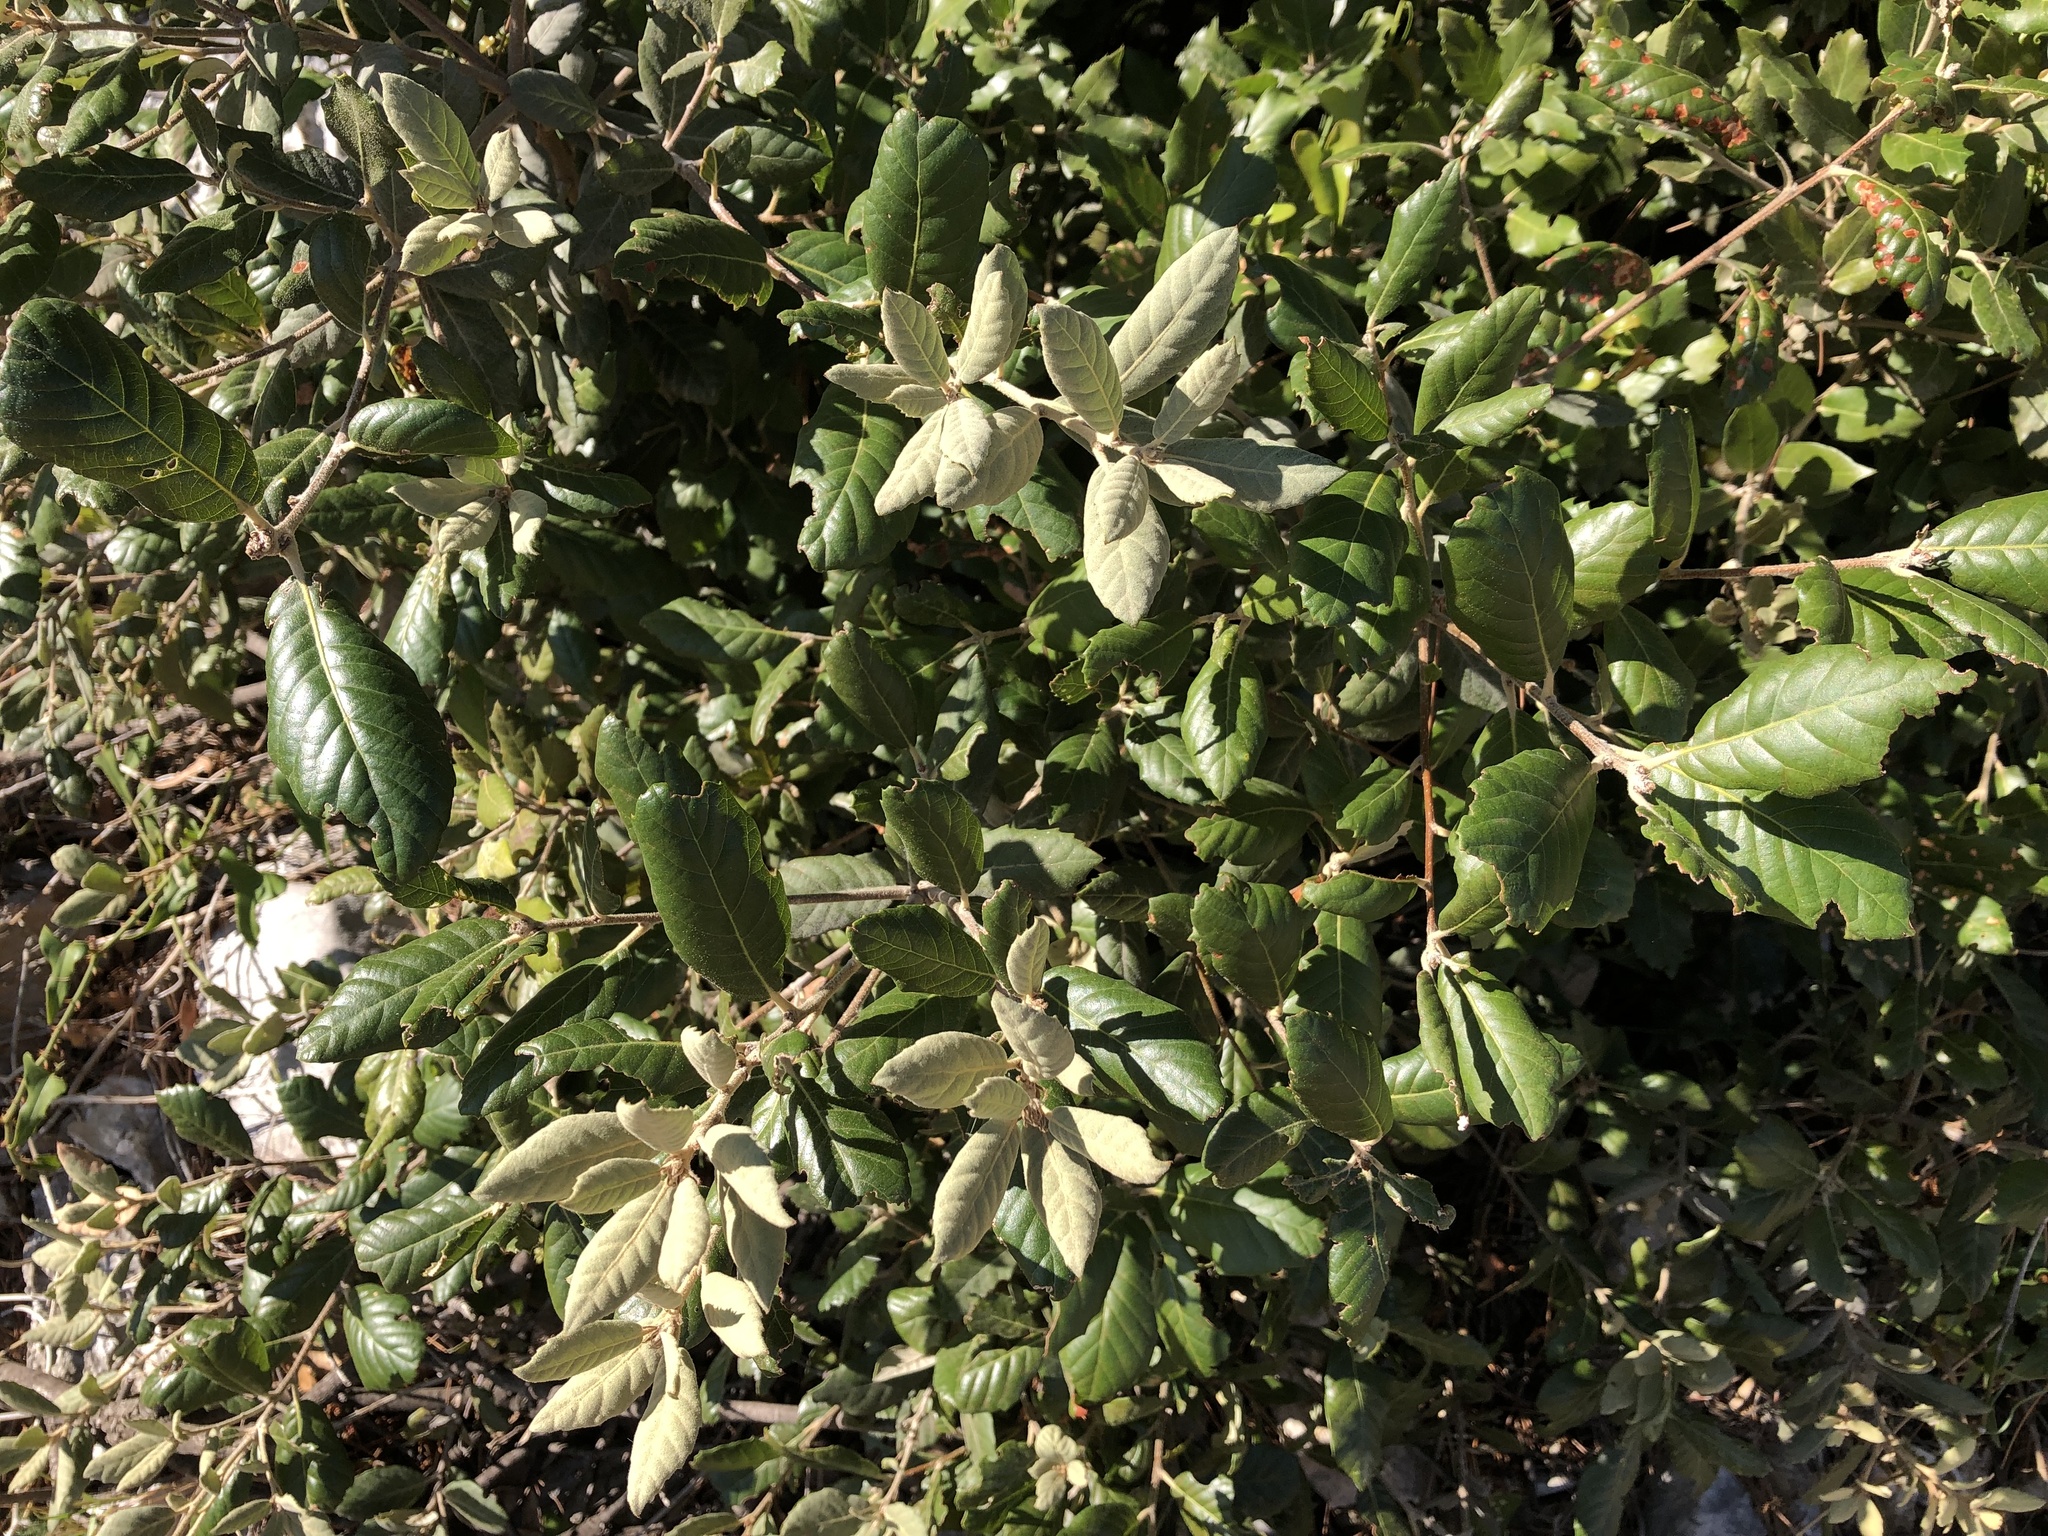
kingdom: Plantae
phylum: Tracheophyta
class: Magnoliopsida
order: Fagales
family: Fagaceae
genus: Quercus
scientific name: Quercus ilex
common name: Evergreen oak
